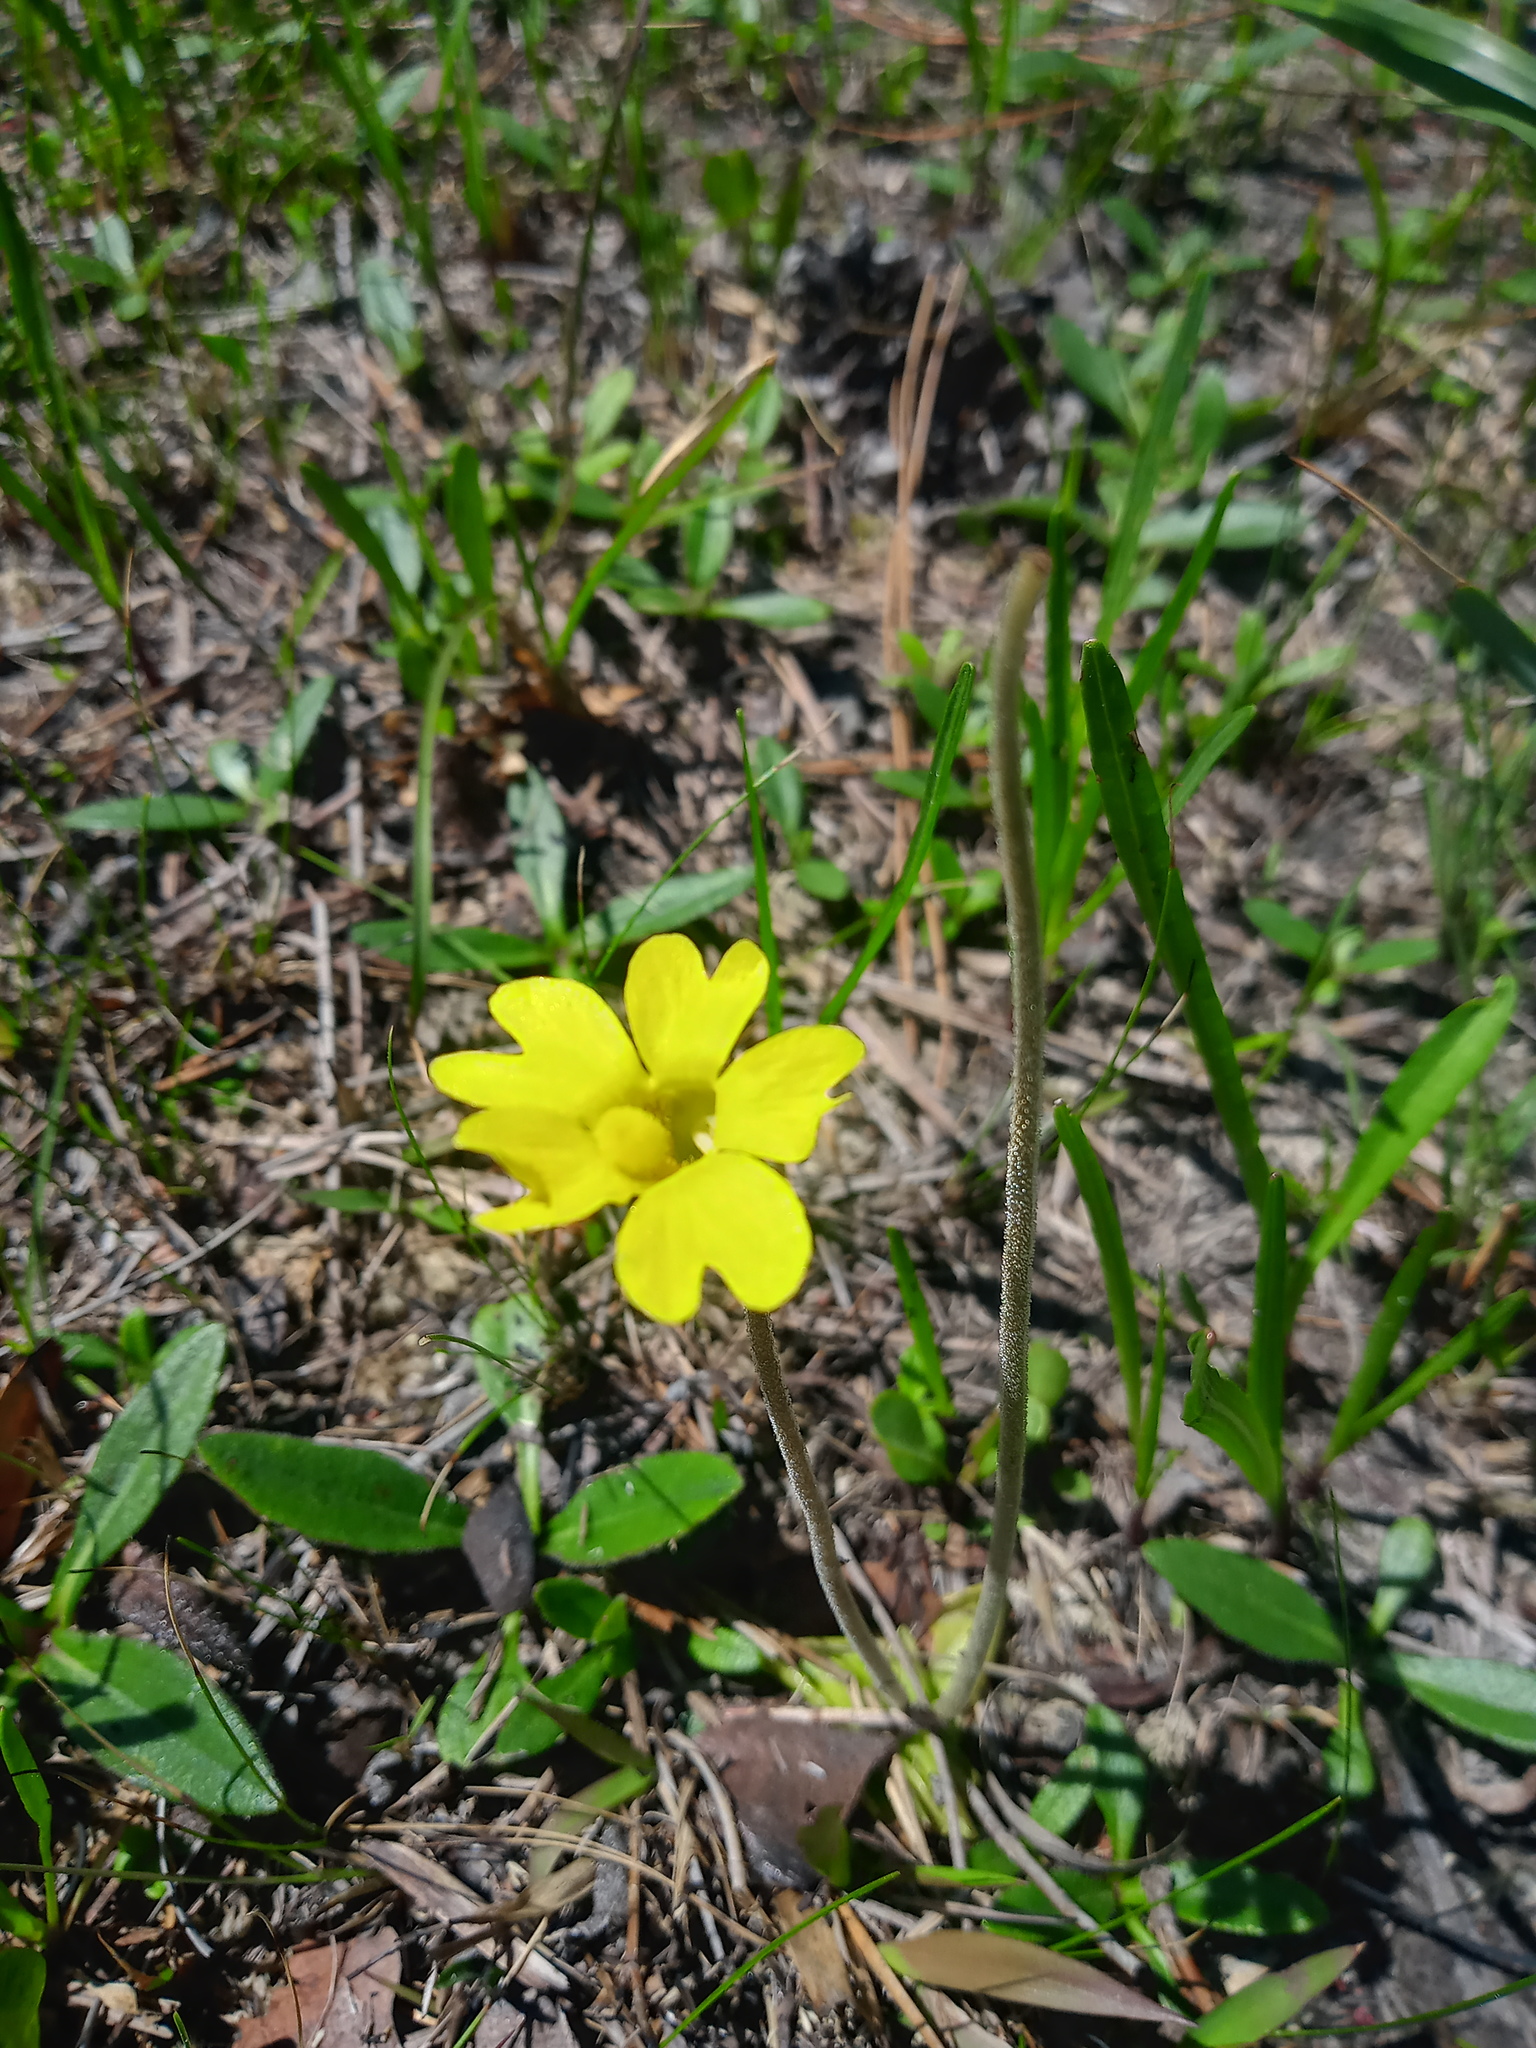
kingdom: Plantae
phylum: Tracheophyta
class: Magnoliopsida
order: Lamiales
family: Lentibulariaceae
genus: Pinguicula
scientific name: Pinguicula lutea
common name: Yellow butterwort
